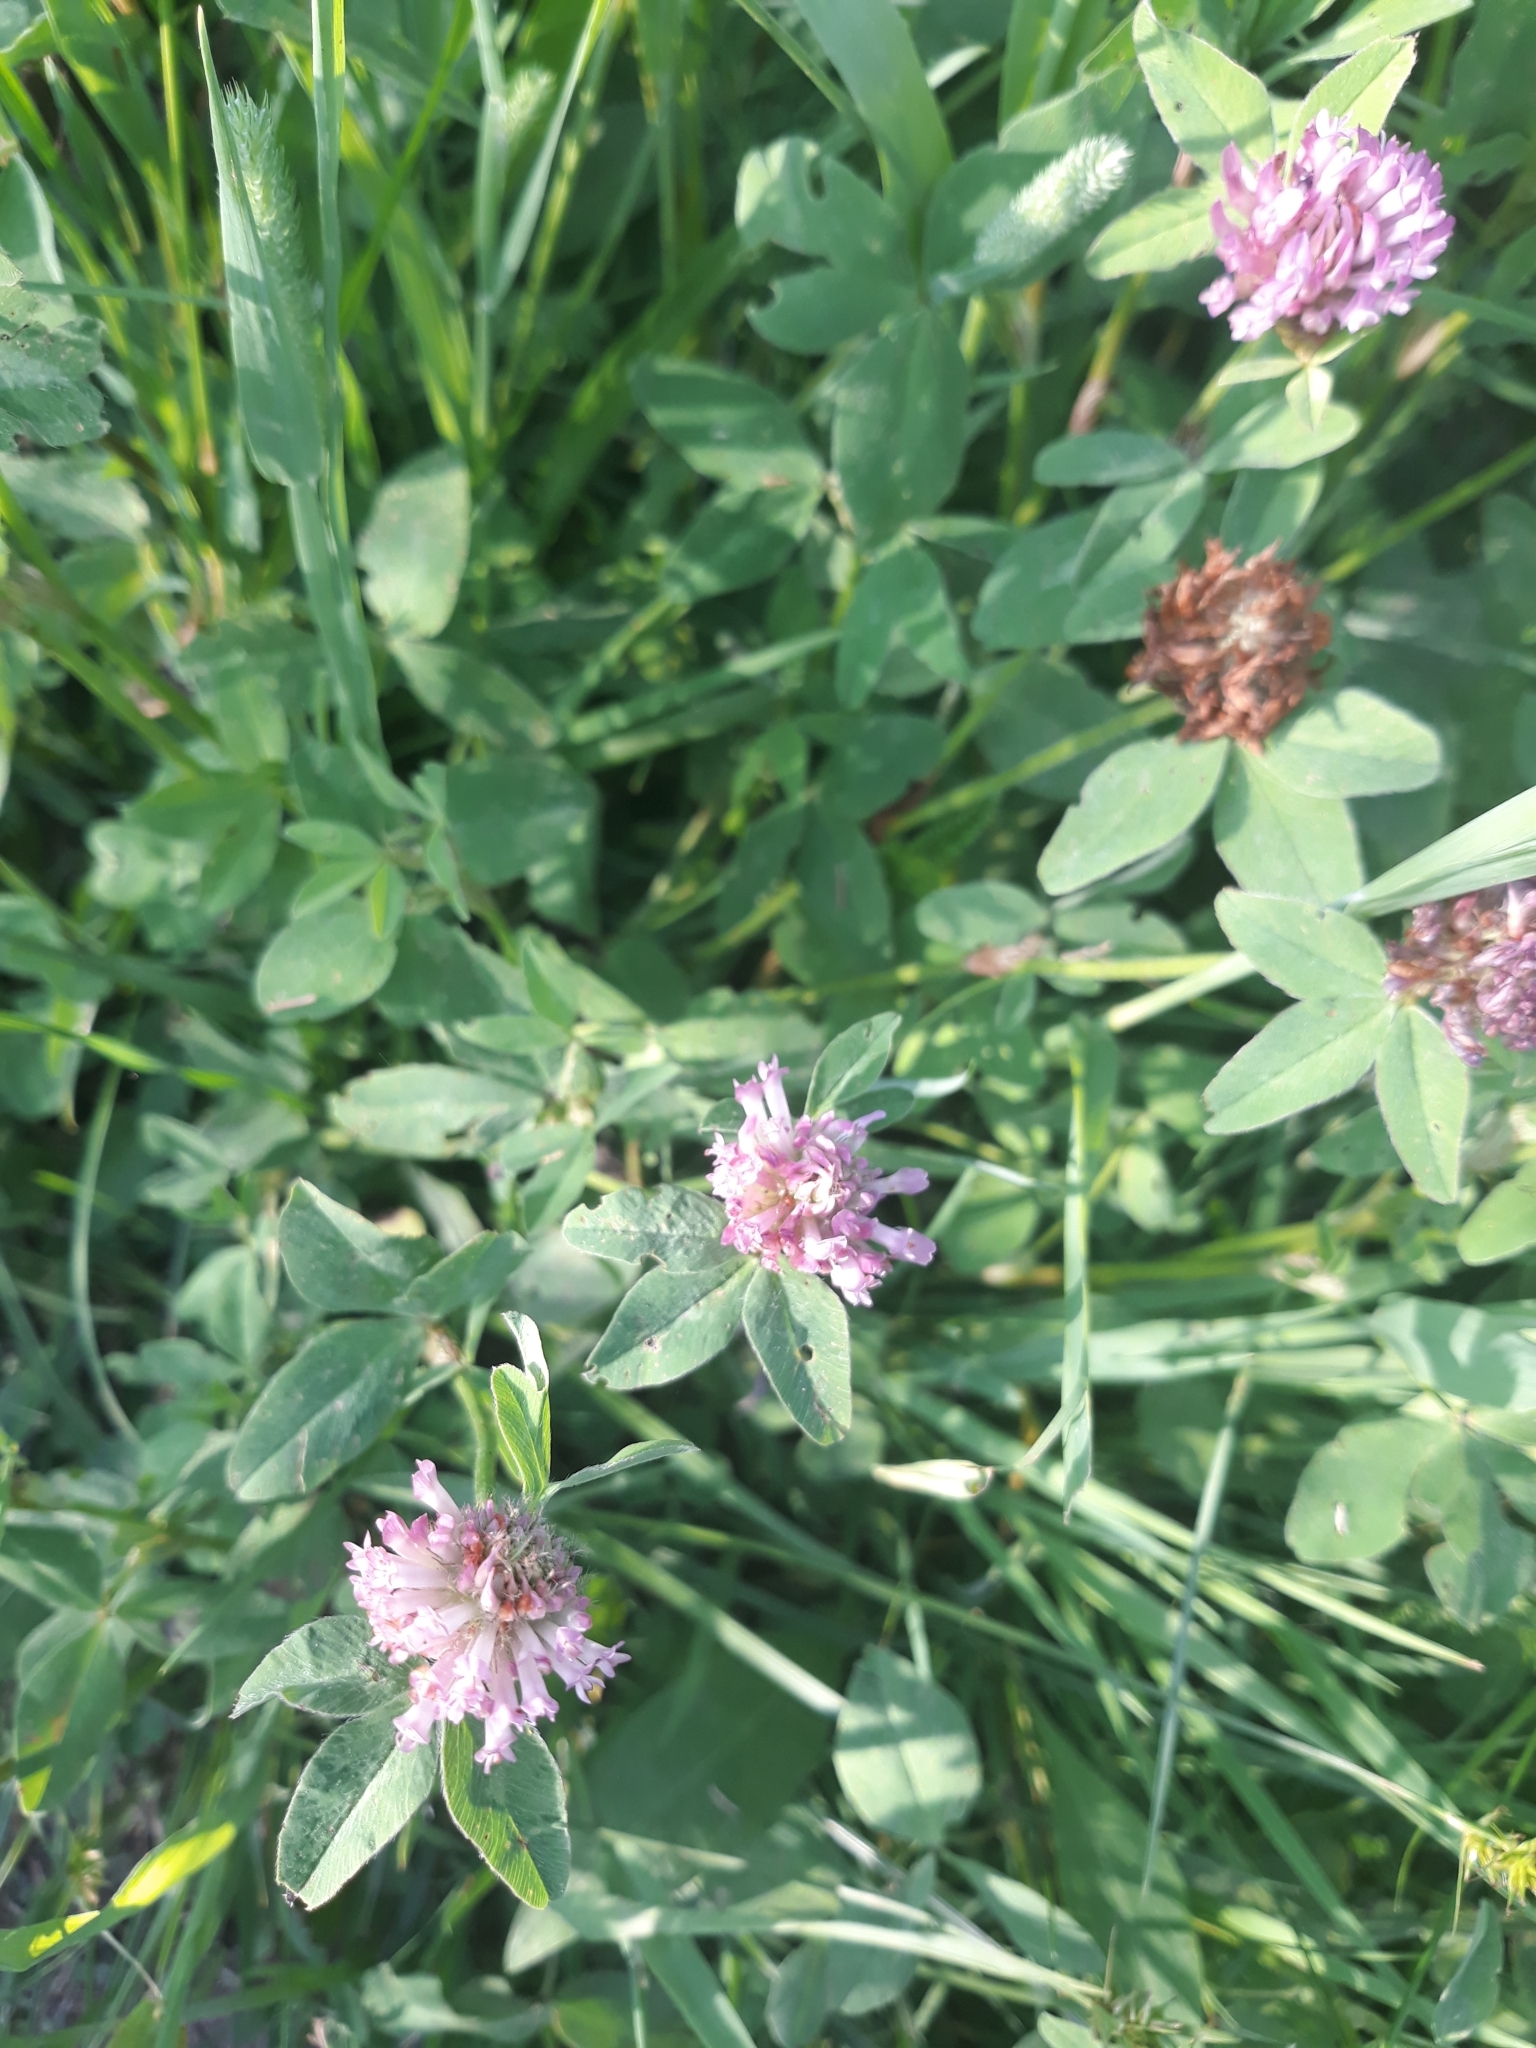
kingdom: Plantae
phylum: Tracheophyta
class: Magnoliopsida
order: Fabales
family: Fabaceae
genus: Trifolium
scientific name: Trifolium pratense
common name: Red clover
